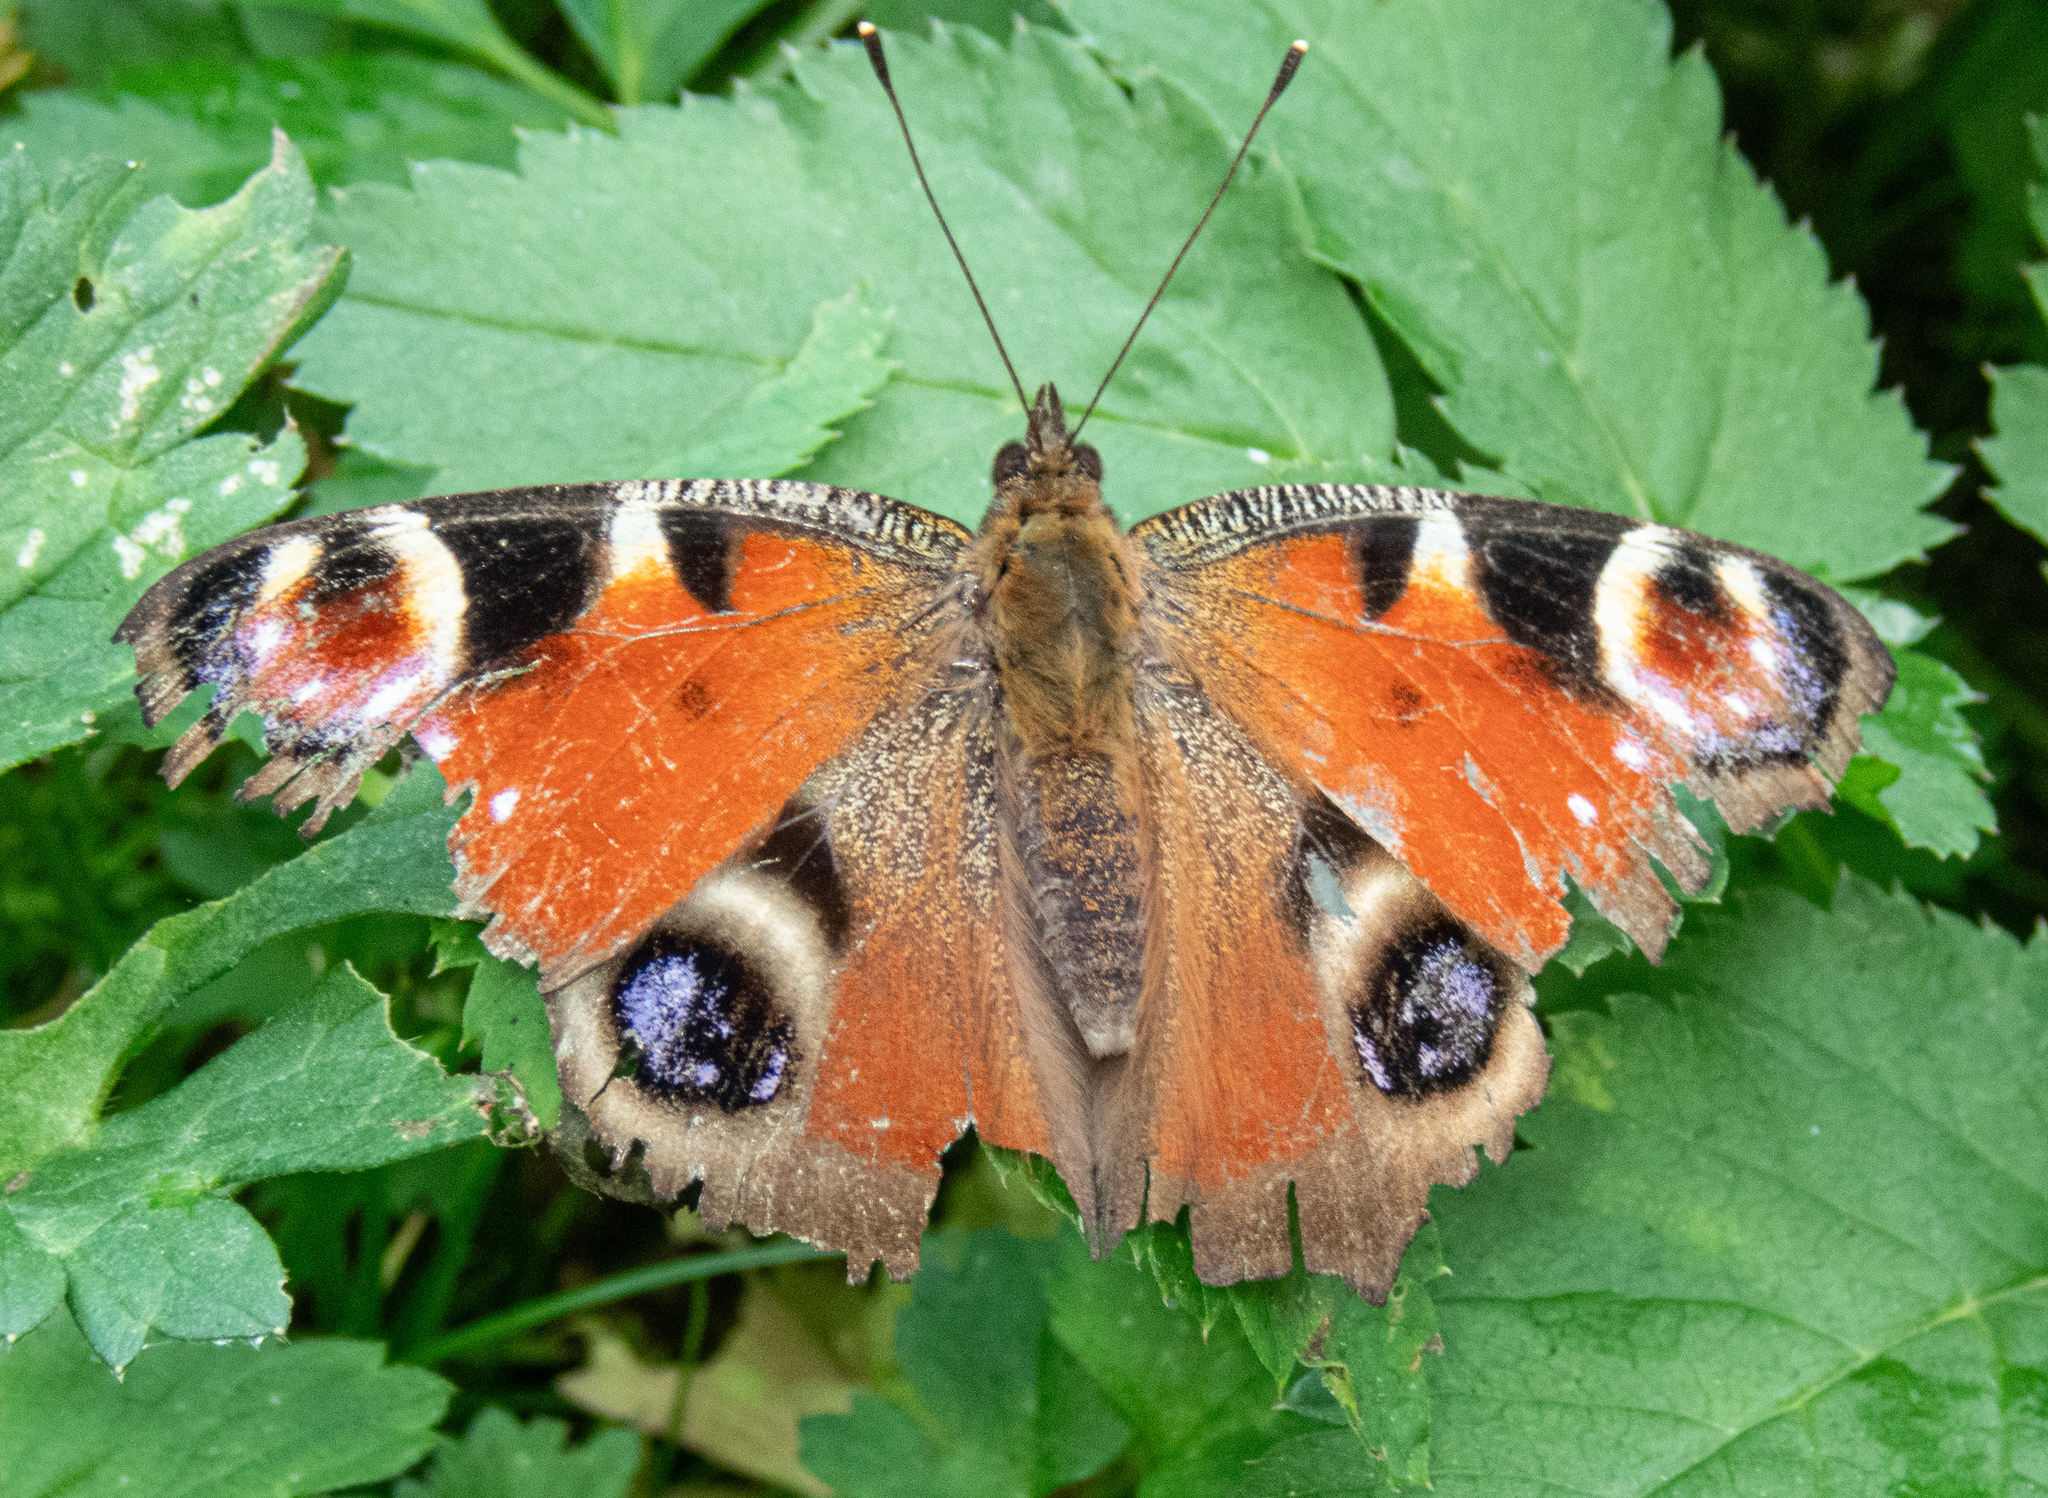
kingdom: Animalia
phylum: Arthropoda
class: Insecta
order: Lepidoptera
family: Nymphalidae
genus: Aglais
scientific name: Aglais io
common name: Peacock
